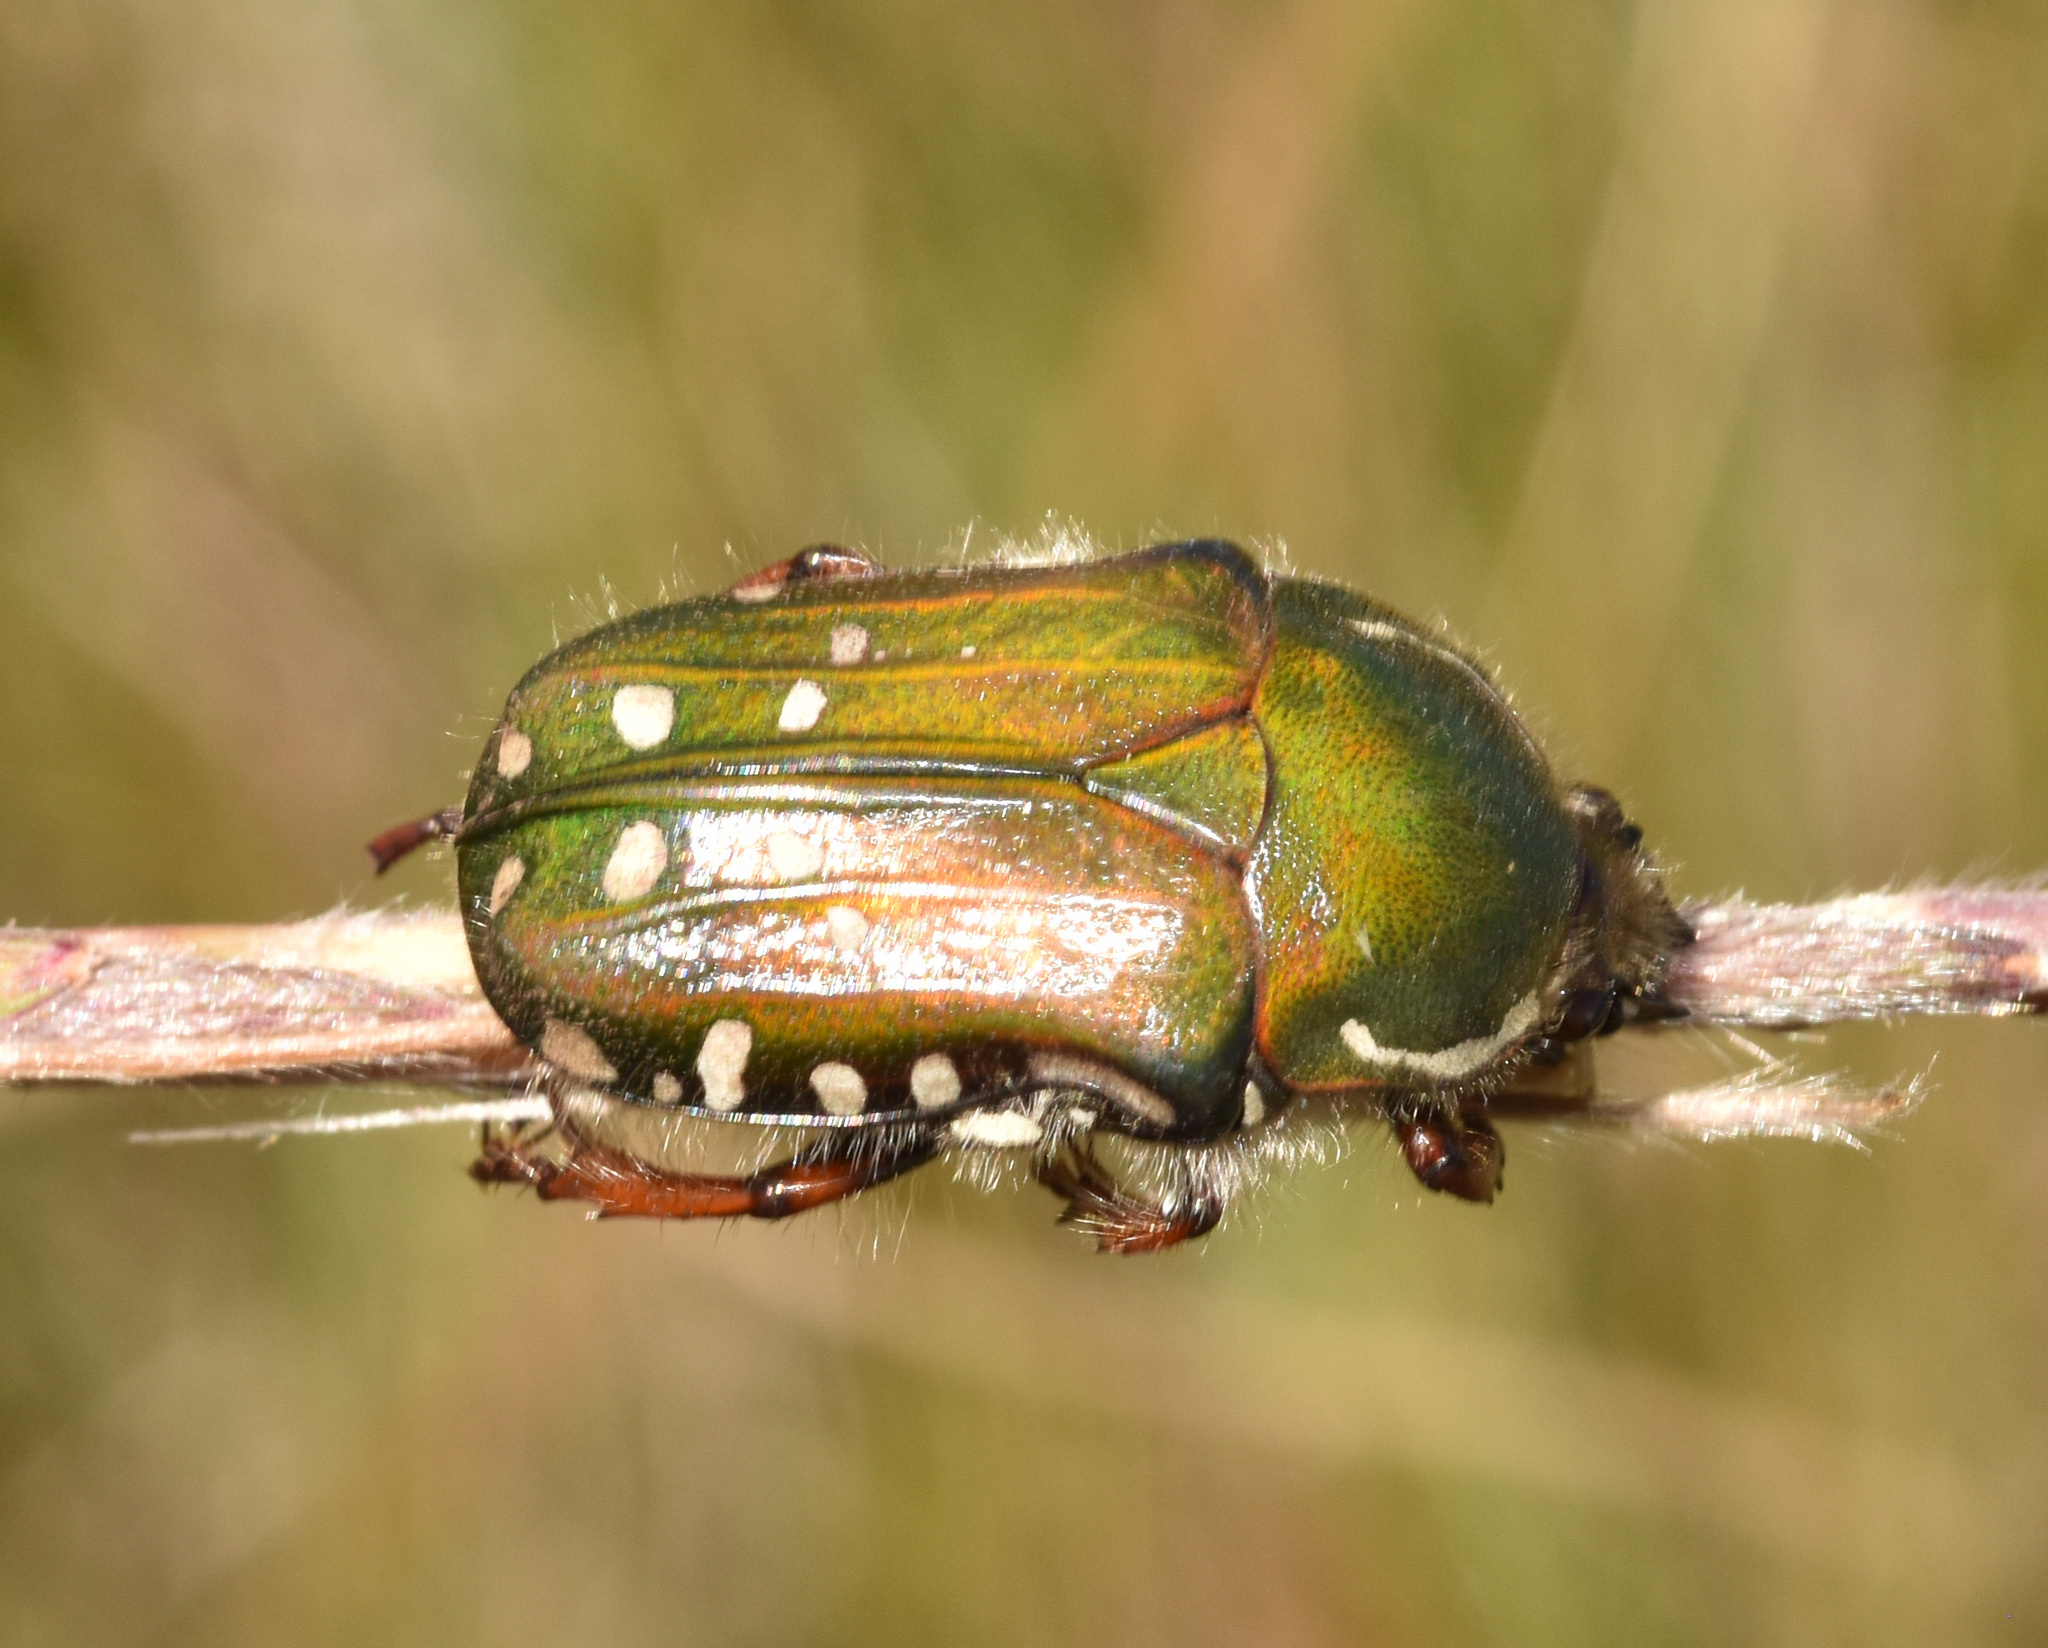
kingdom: Animalia
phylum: Arthropoda
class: Insecta
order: Coleoptera
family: Scarabaeidae
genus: Gnathocera
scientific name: Gnathocera hirta
